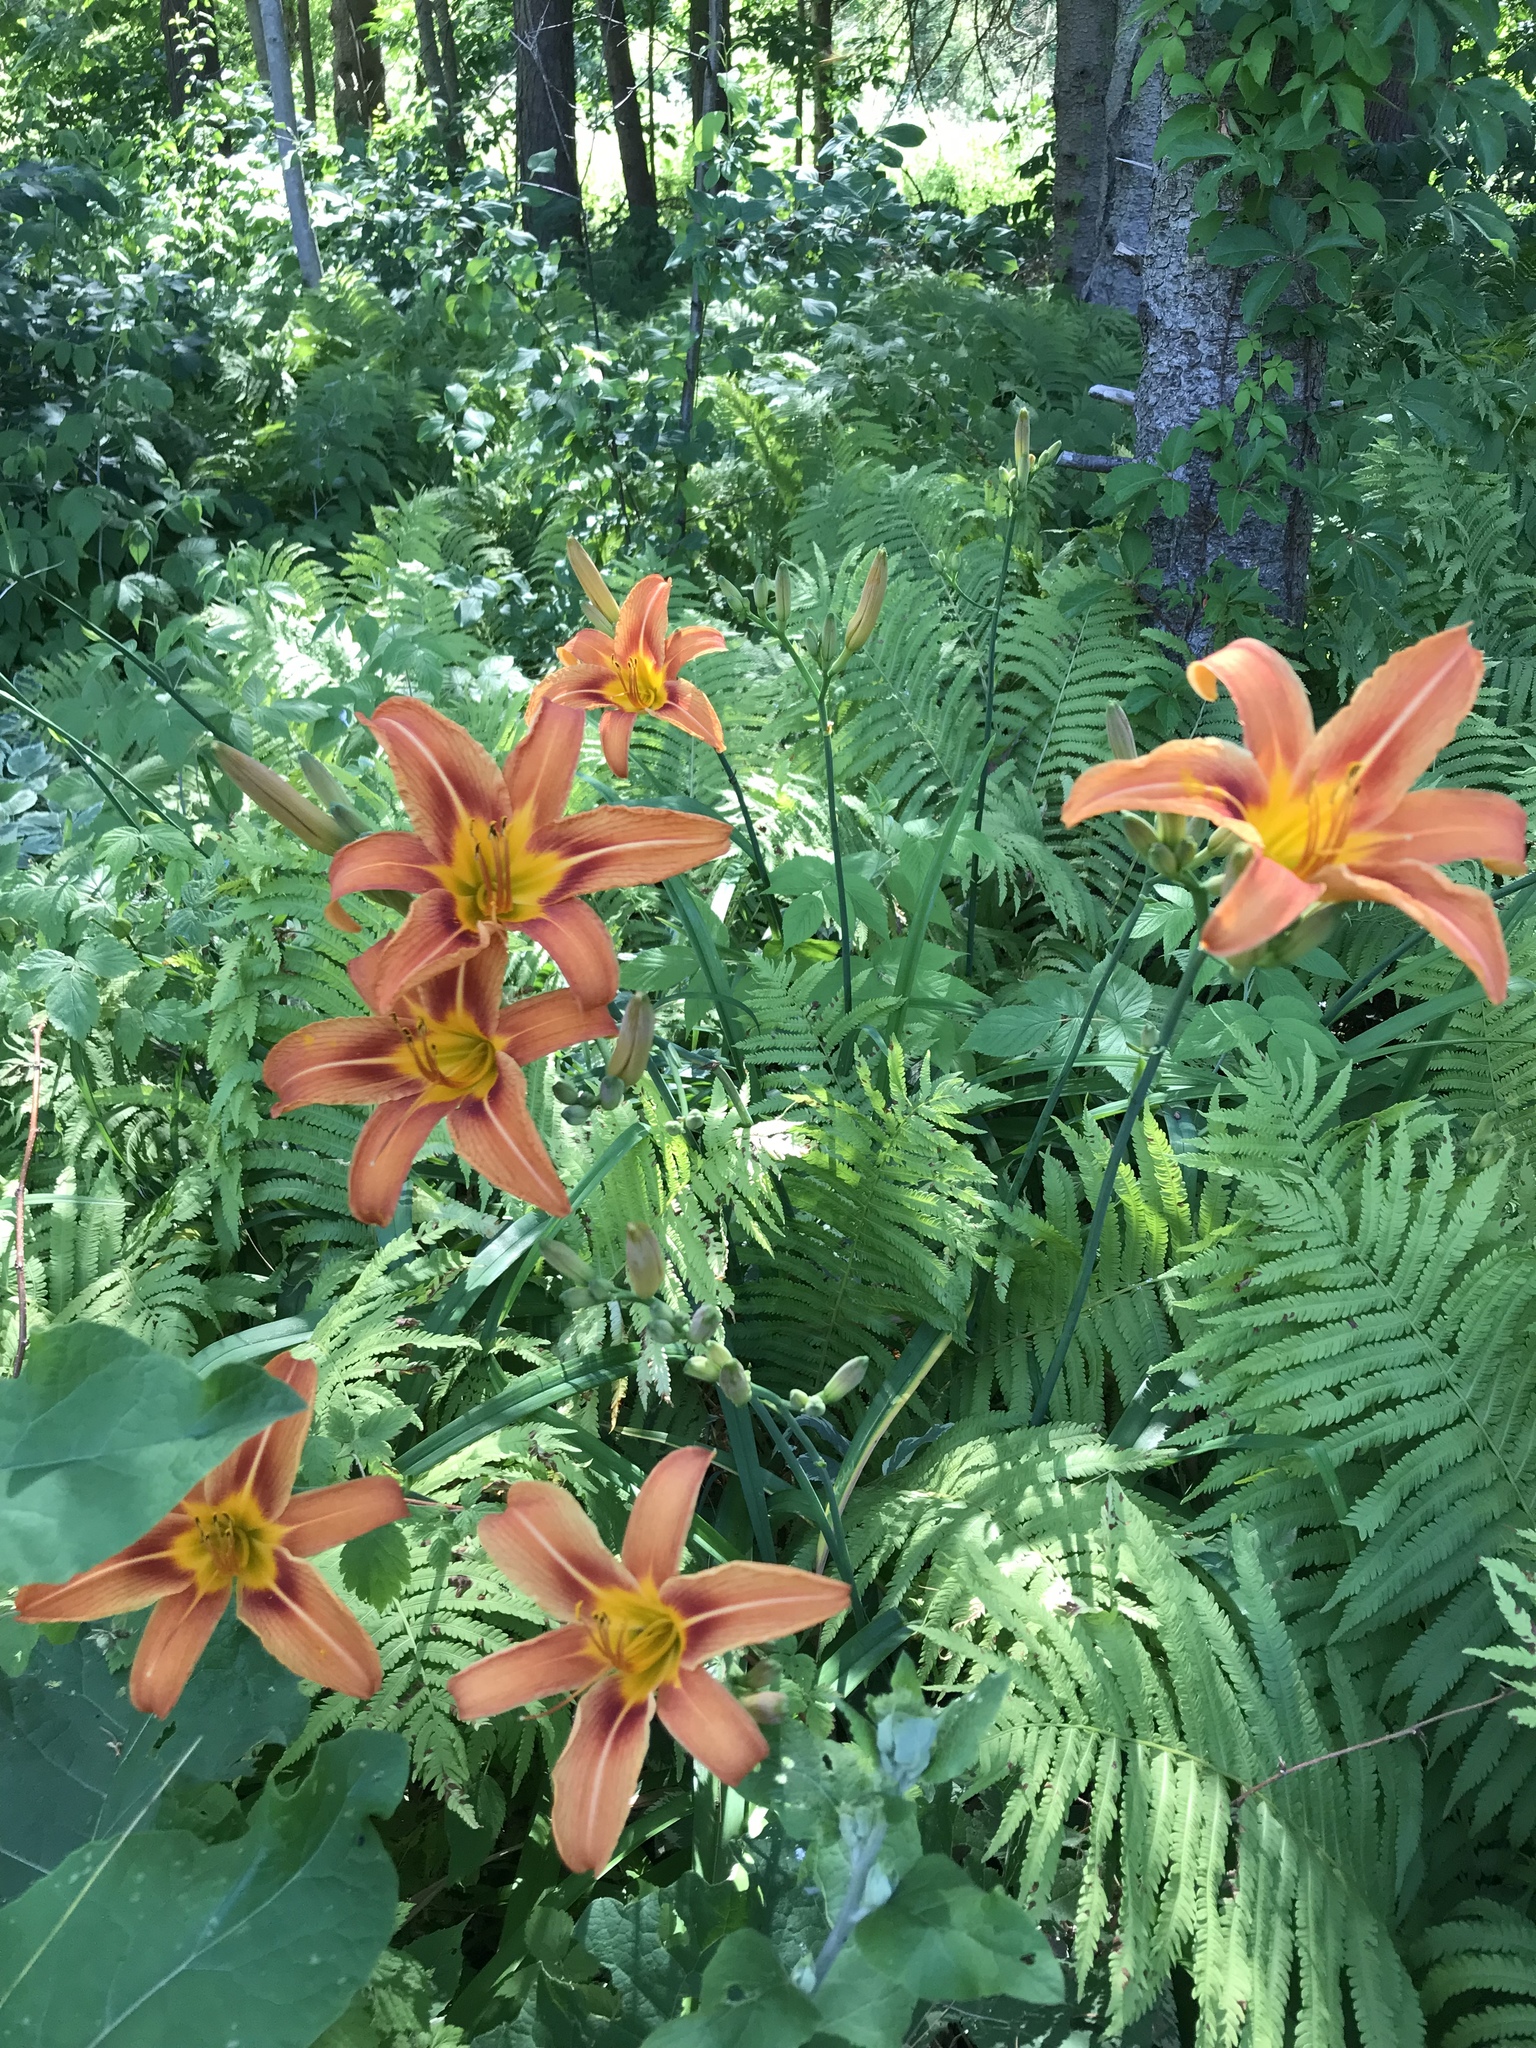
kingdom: Plantae
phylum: Tracheophyta
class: Liliopsida
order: Asparagales
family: Asphodelaceae
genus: Hemerocallis
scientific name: Hemerocallis fulva
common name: Orange day-lily
